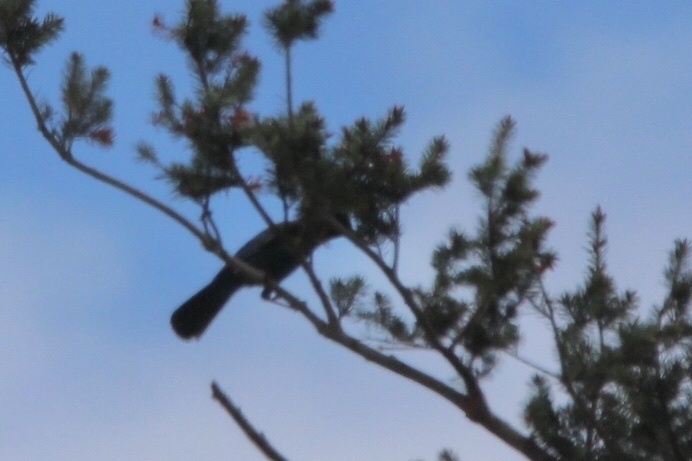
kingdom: Animalia
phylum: Chordata
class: Aves
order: Passeriformes
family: Corvidae
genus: Cyanocitta
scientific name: Cyanocitta stelleri
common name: Steller's jay
